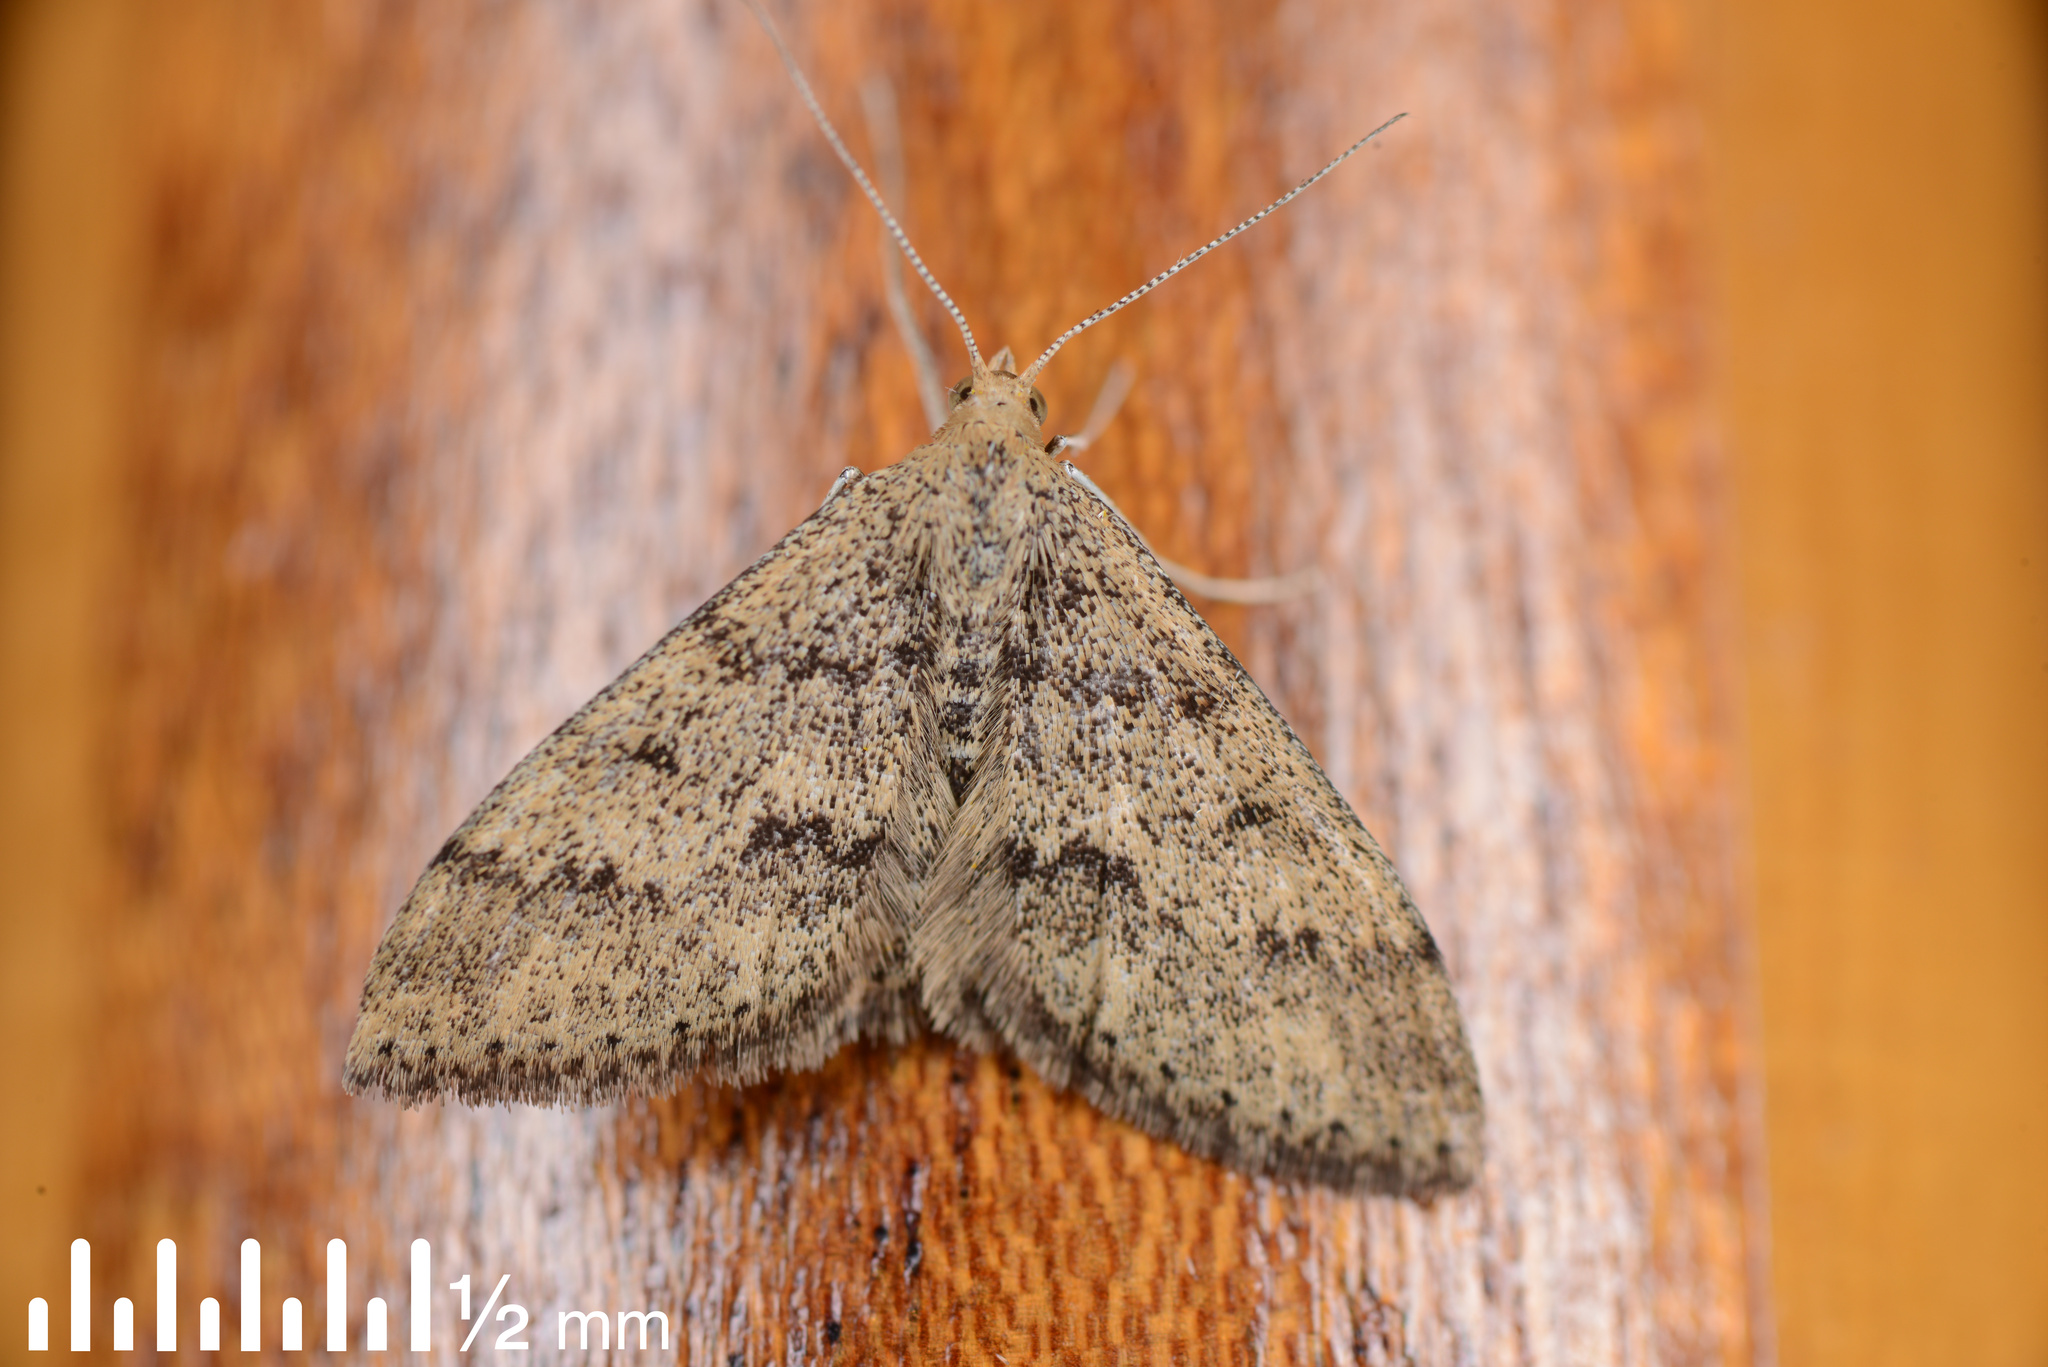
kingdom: Animalia
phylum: Arthropoda
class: Insecta
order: Lepidoptera
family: Geometridae
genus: Scopula
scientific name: Scopula rubraria
